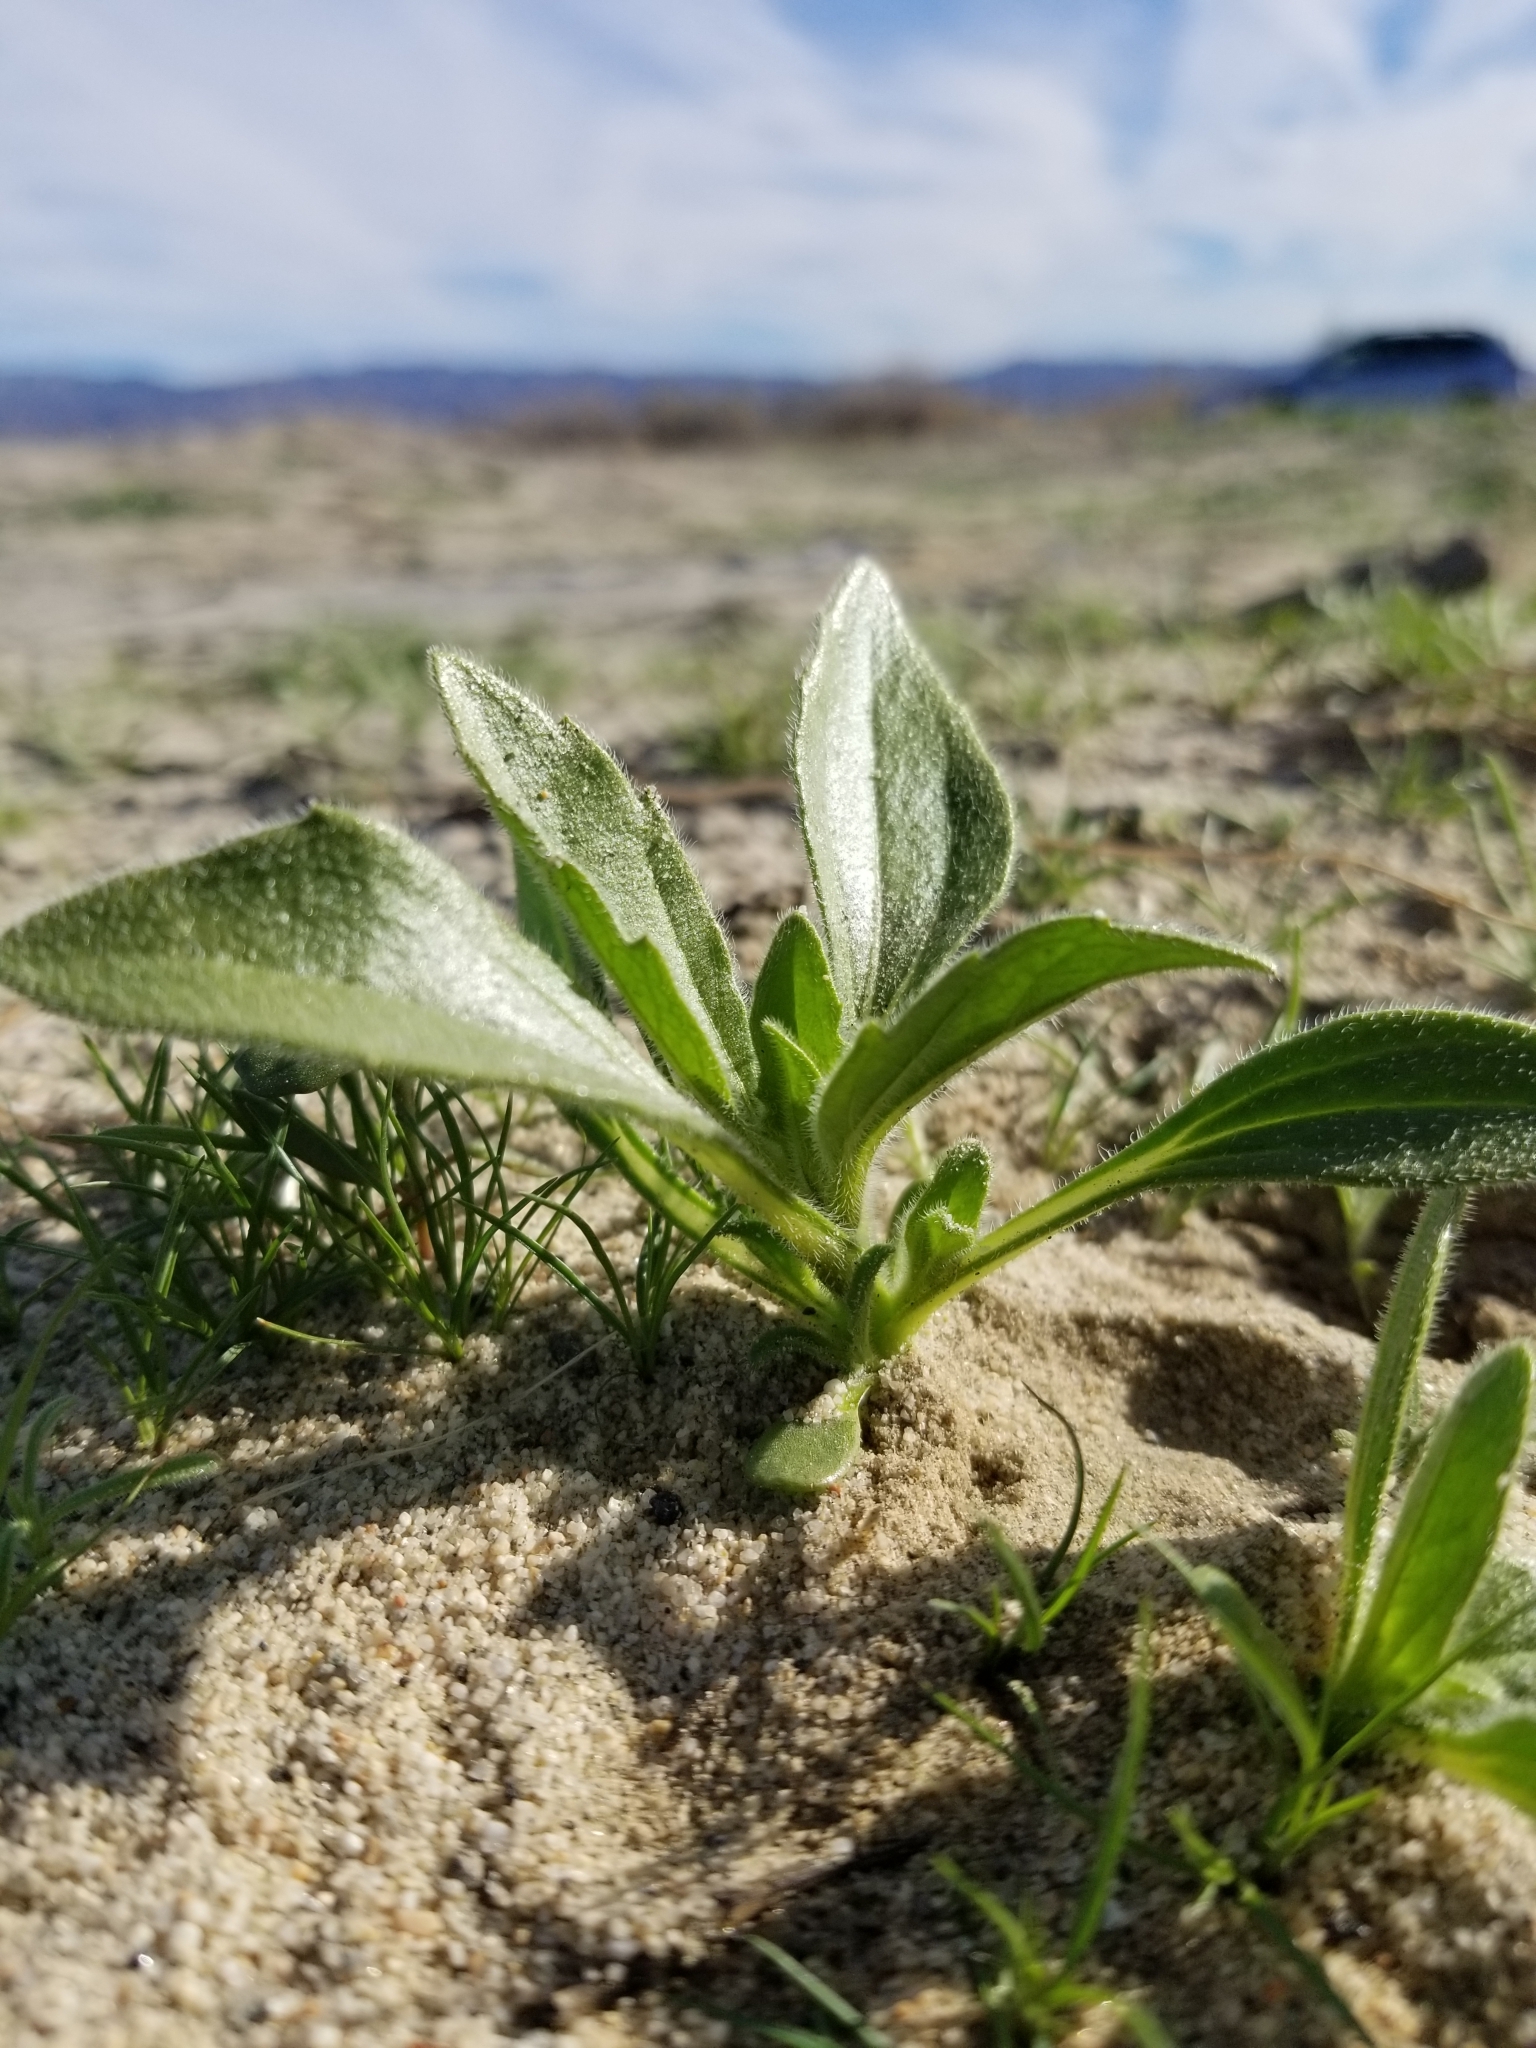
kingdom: Plantae
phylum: Tracheophyta
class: Magnoliopsida
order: Asterales
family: Asteraceae
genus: Geraea
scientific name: Geraea canescens
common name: Desert-gold
